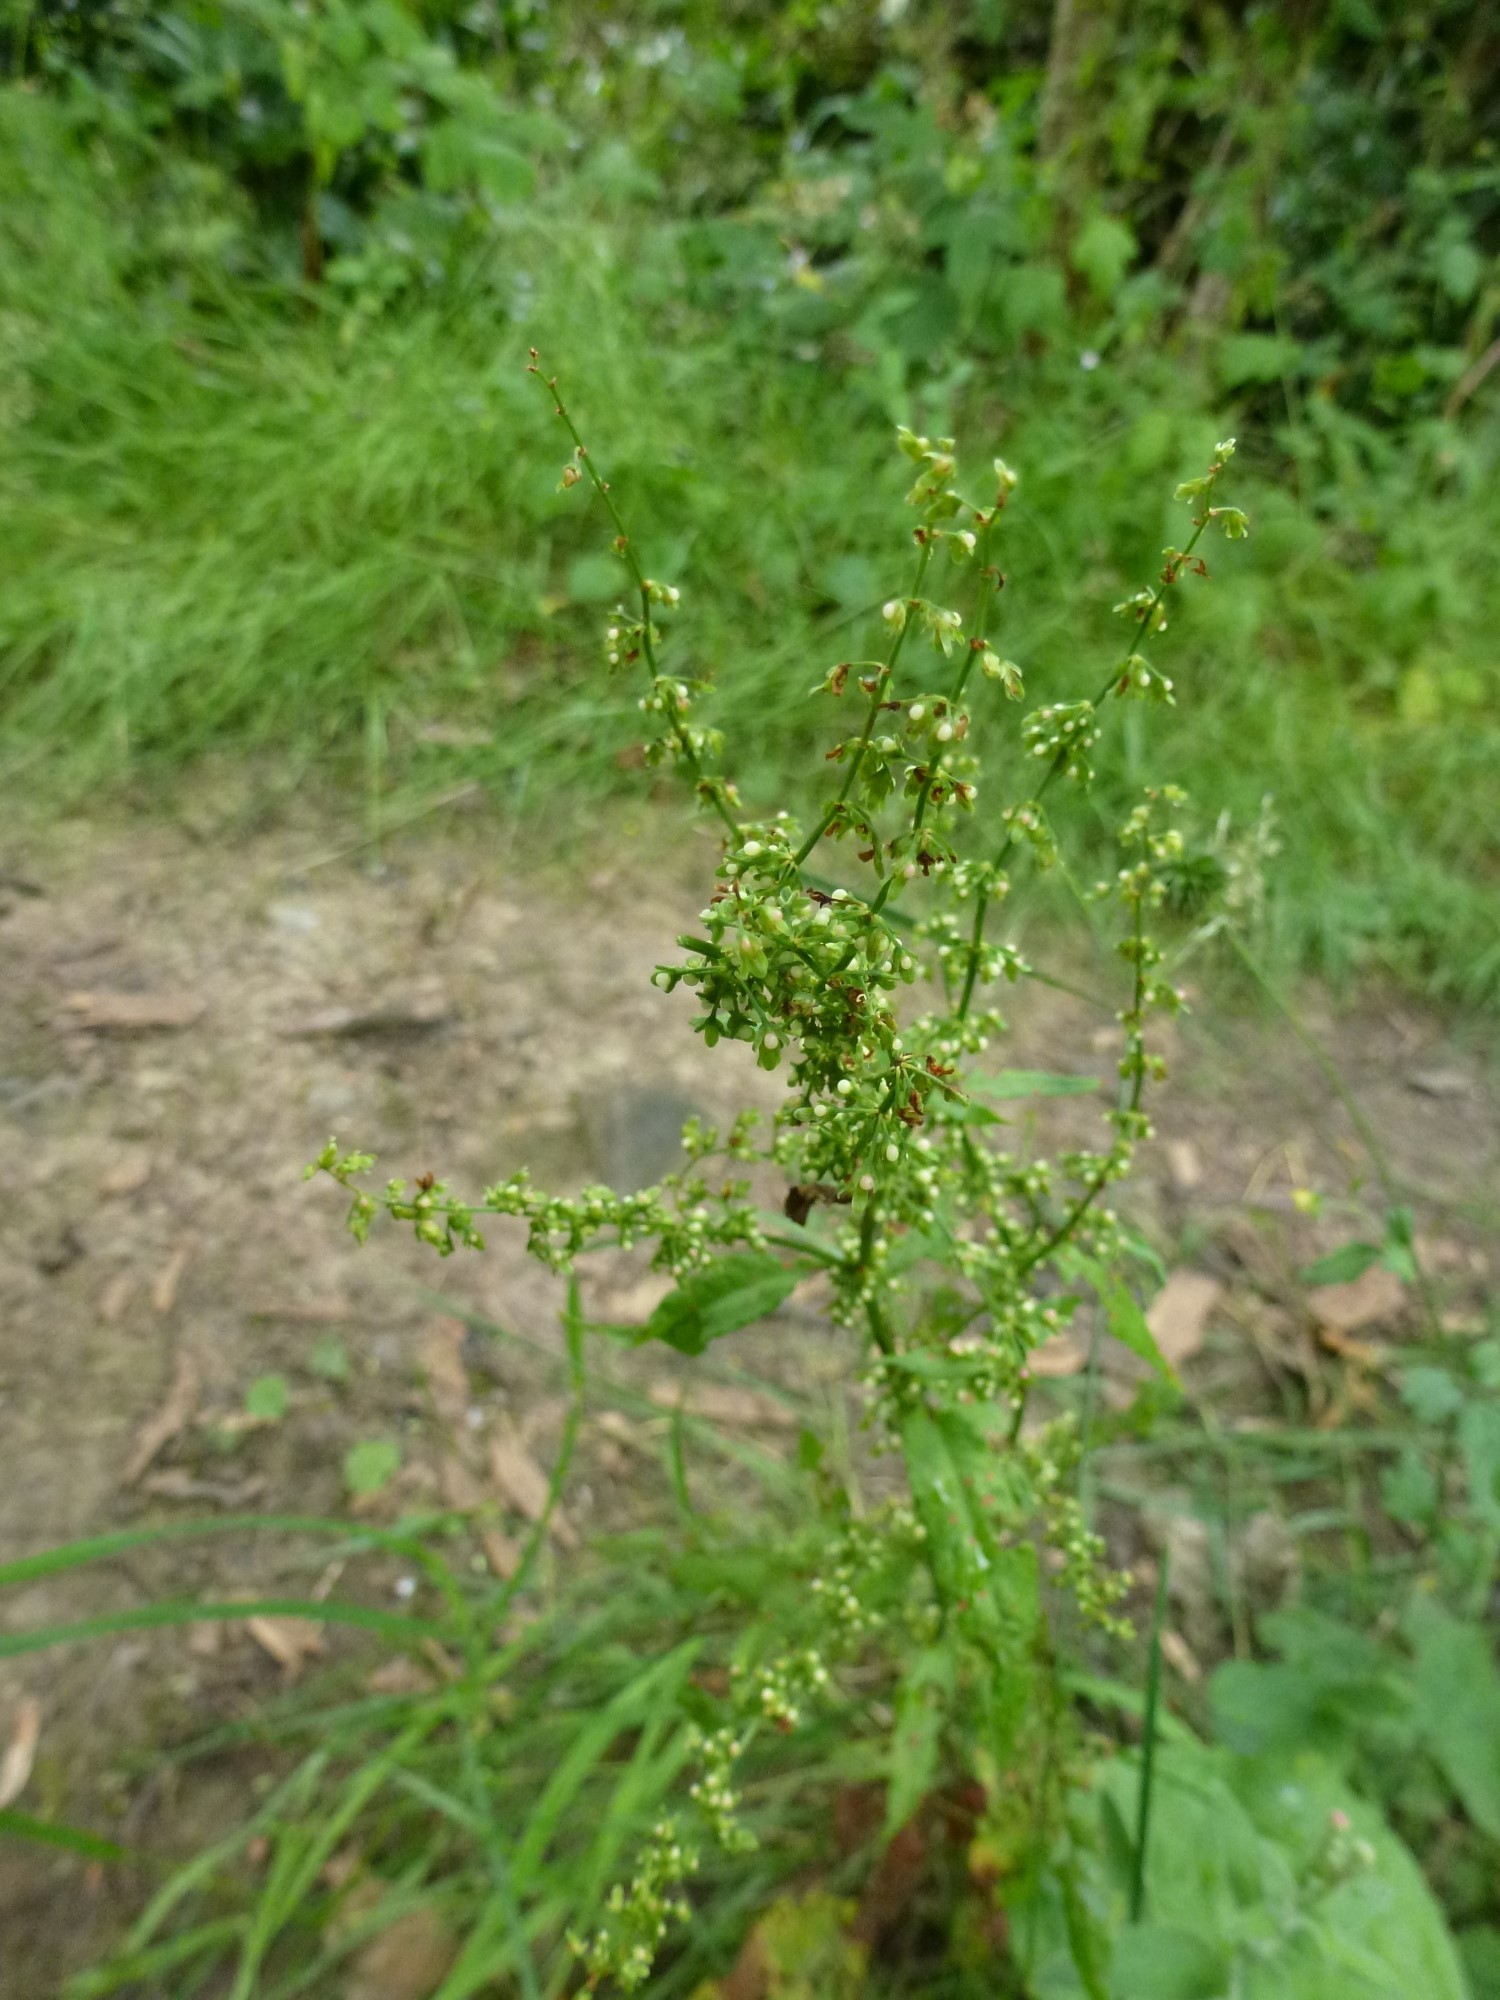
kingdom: Plantae
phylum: Tracheophyta
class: Magnoliopsida
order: Caryophyllales
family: Polygonaceae
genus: Rumex
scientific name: Rumex sanguineus
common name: Wood dock
